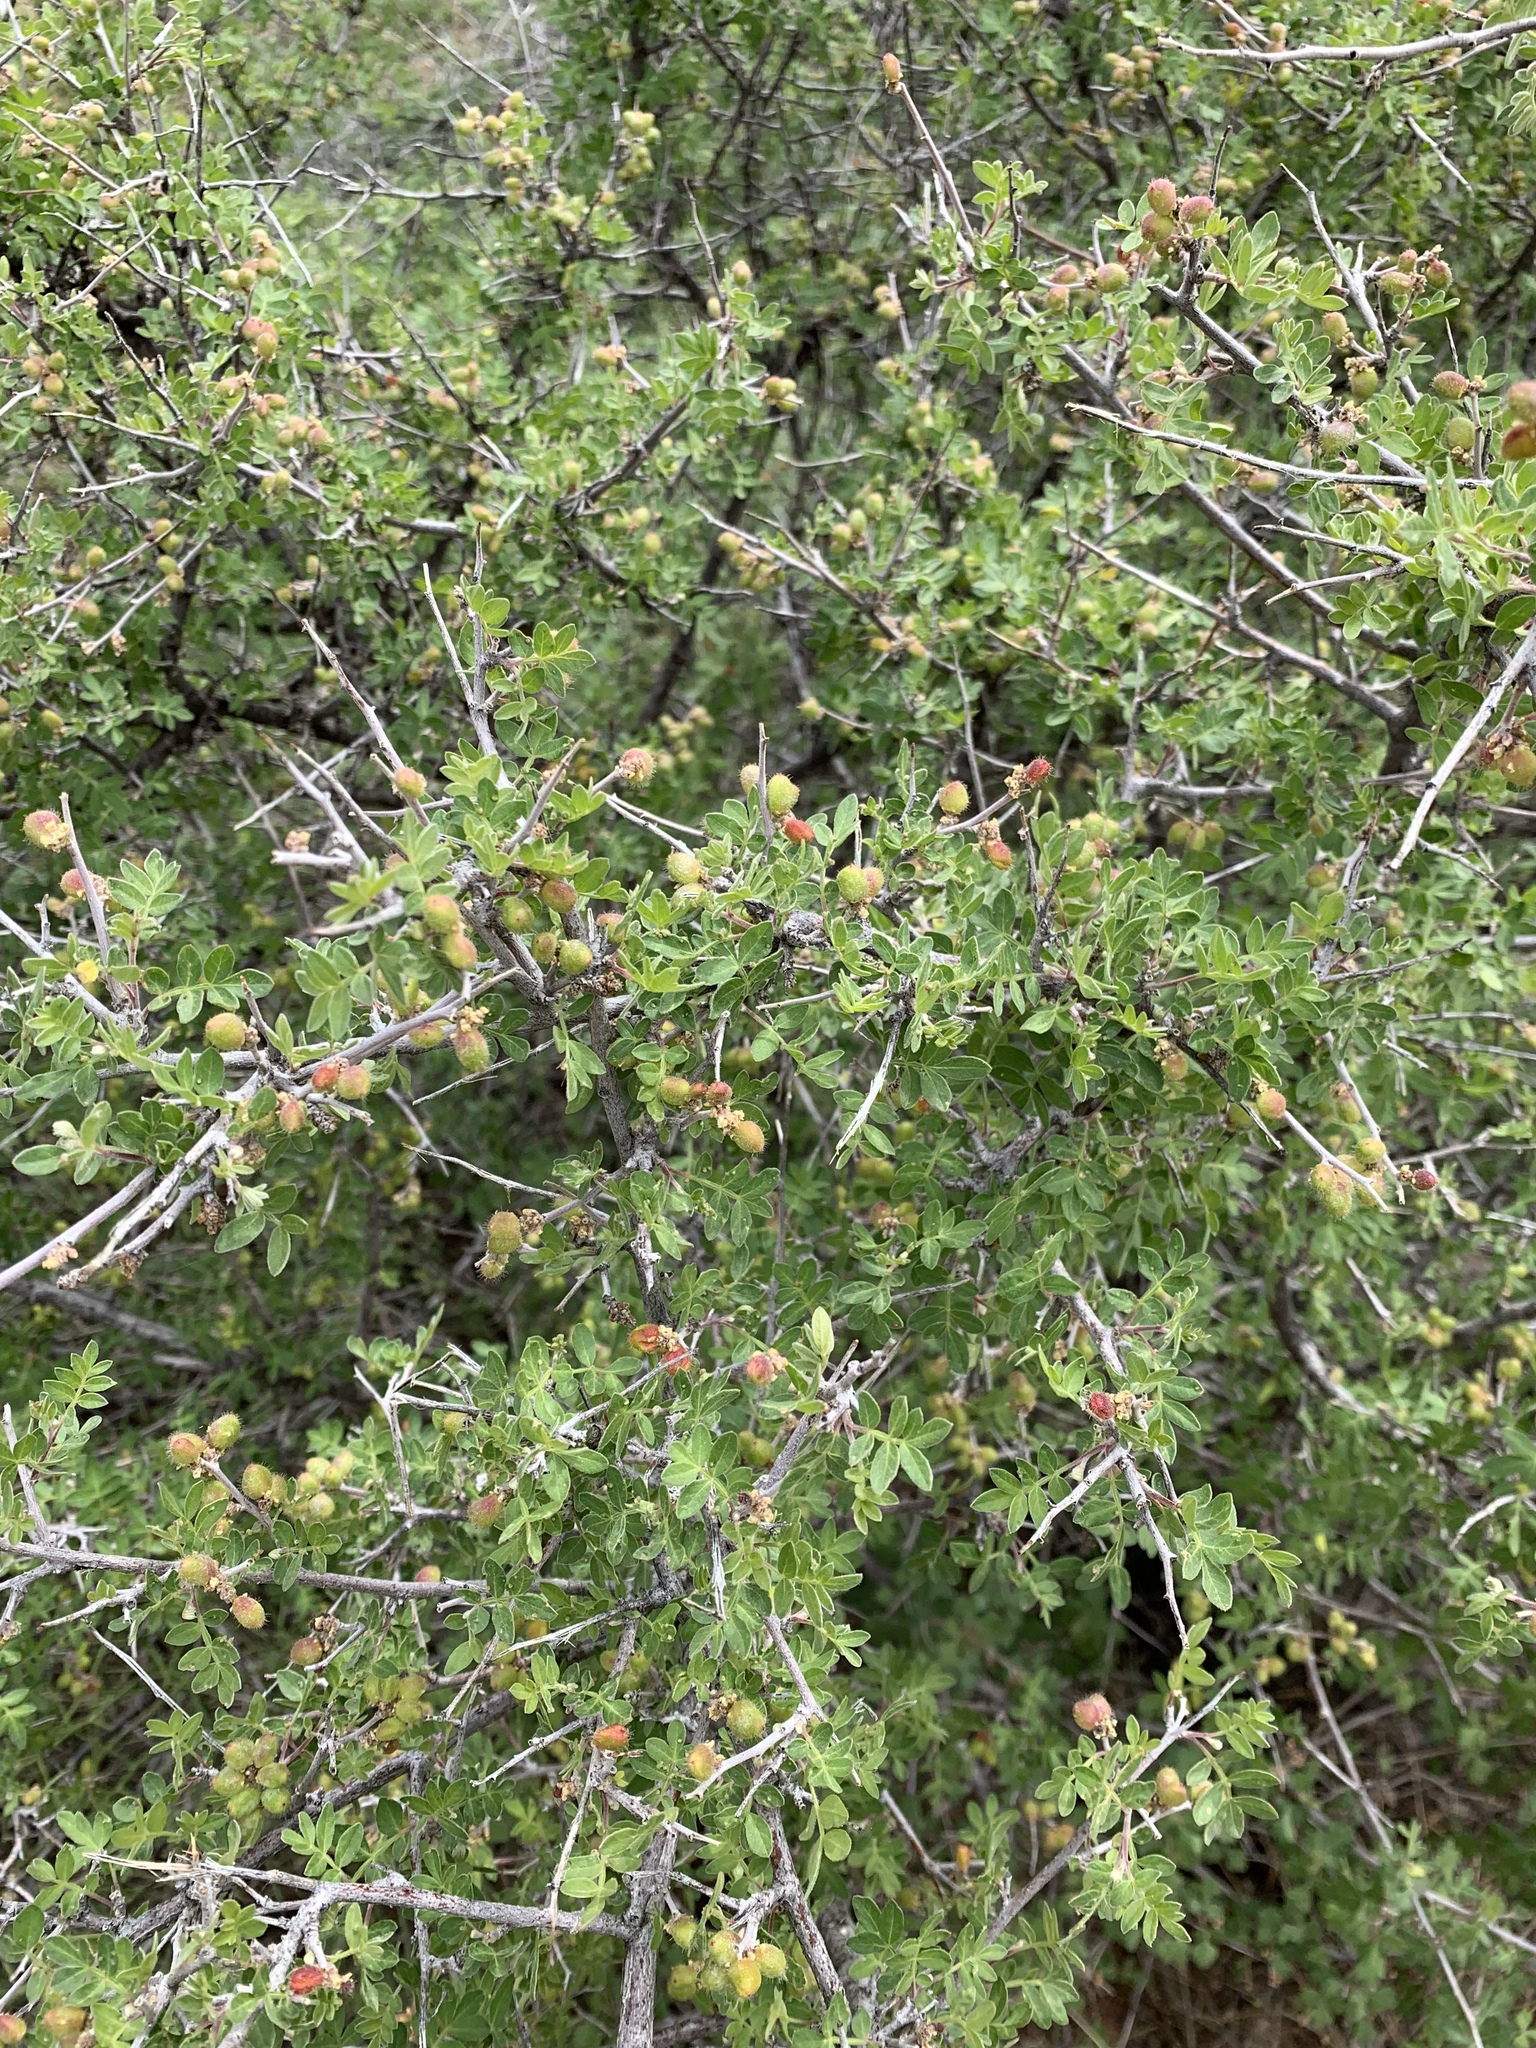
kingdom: Plantae
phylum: Tracheophyta
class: Magnoliopsida
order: Sapindales
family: Anacardiaceae
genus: Rhus
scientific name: Rhus microphylla
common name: Desert sumac
